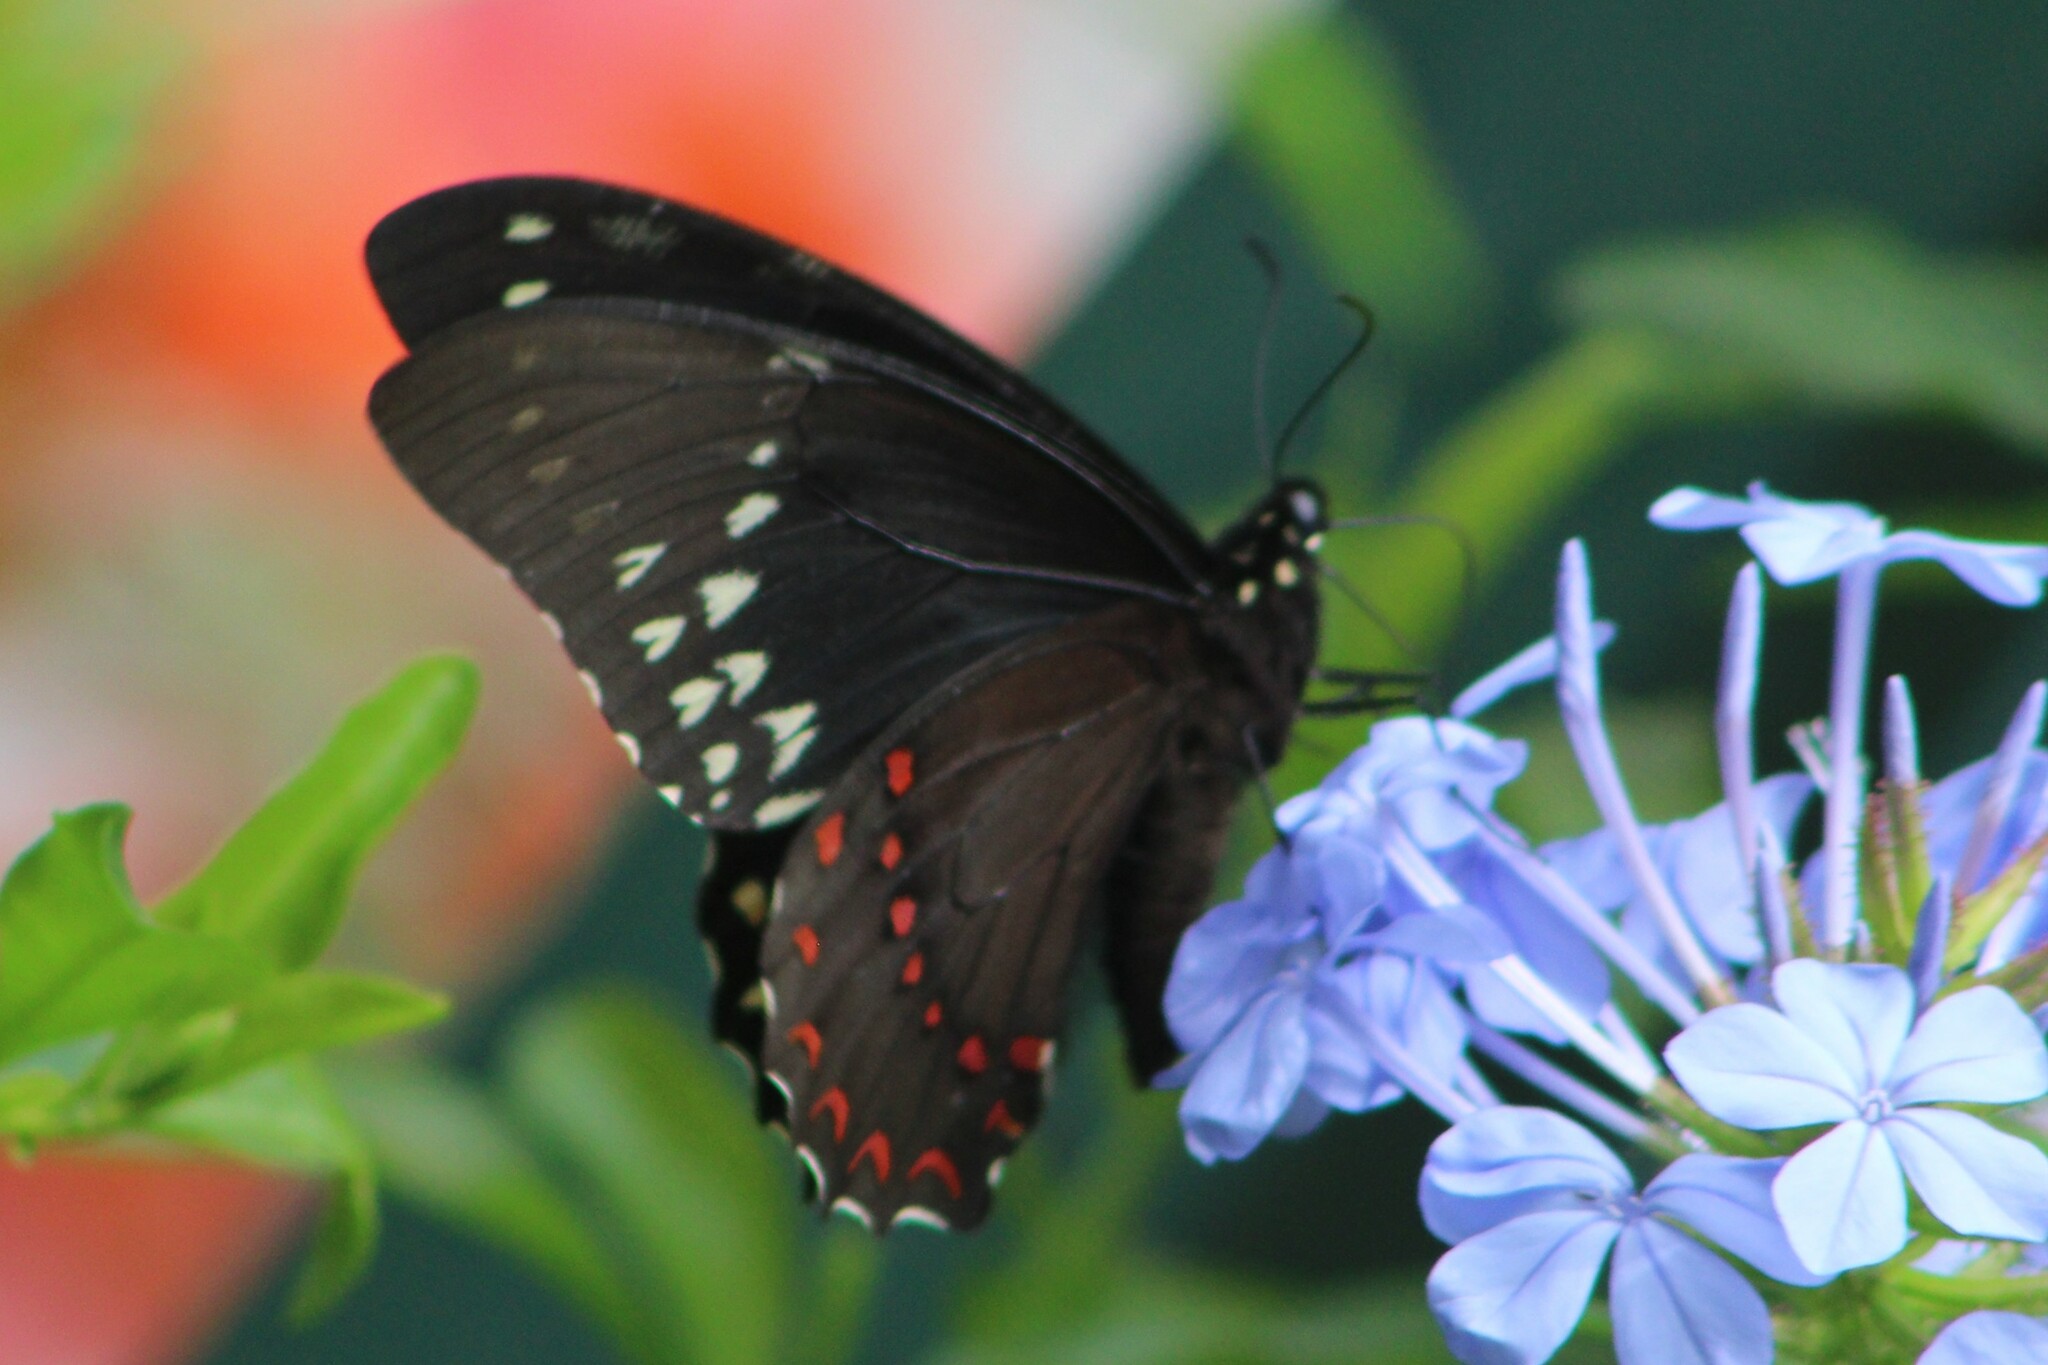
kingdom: Animalia
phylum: Arthropoda
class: Insecta
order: Lepidoptera
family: Papilionidae
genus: Papilio
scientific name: Papilio menatius
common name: Victorine swallowtail
